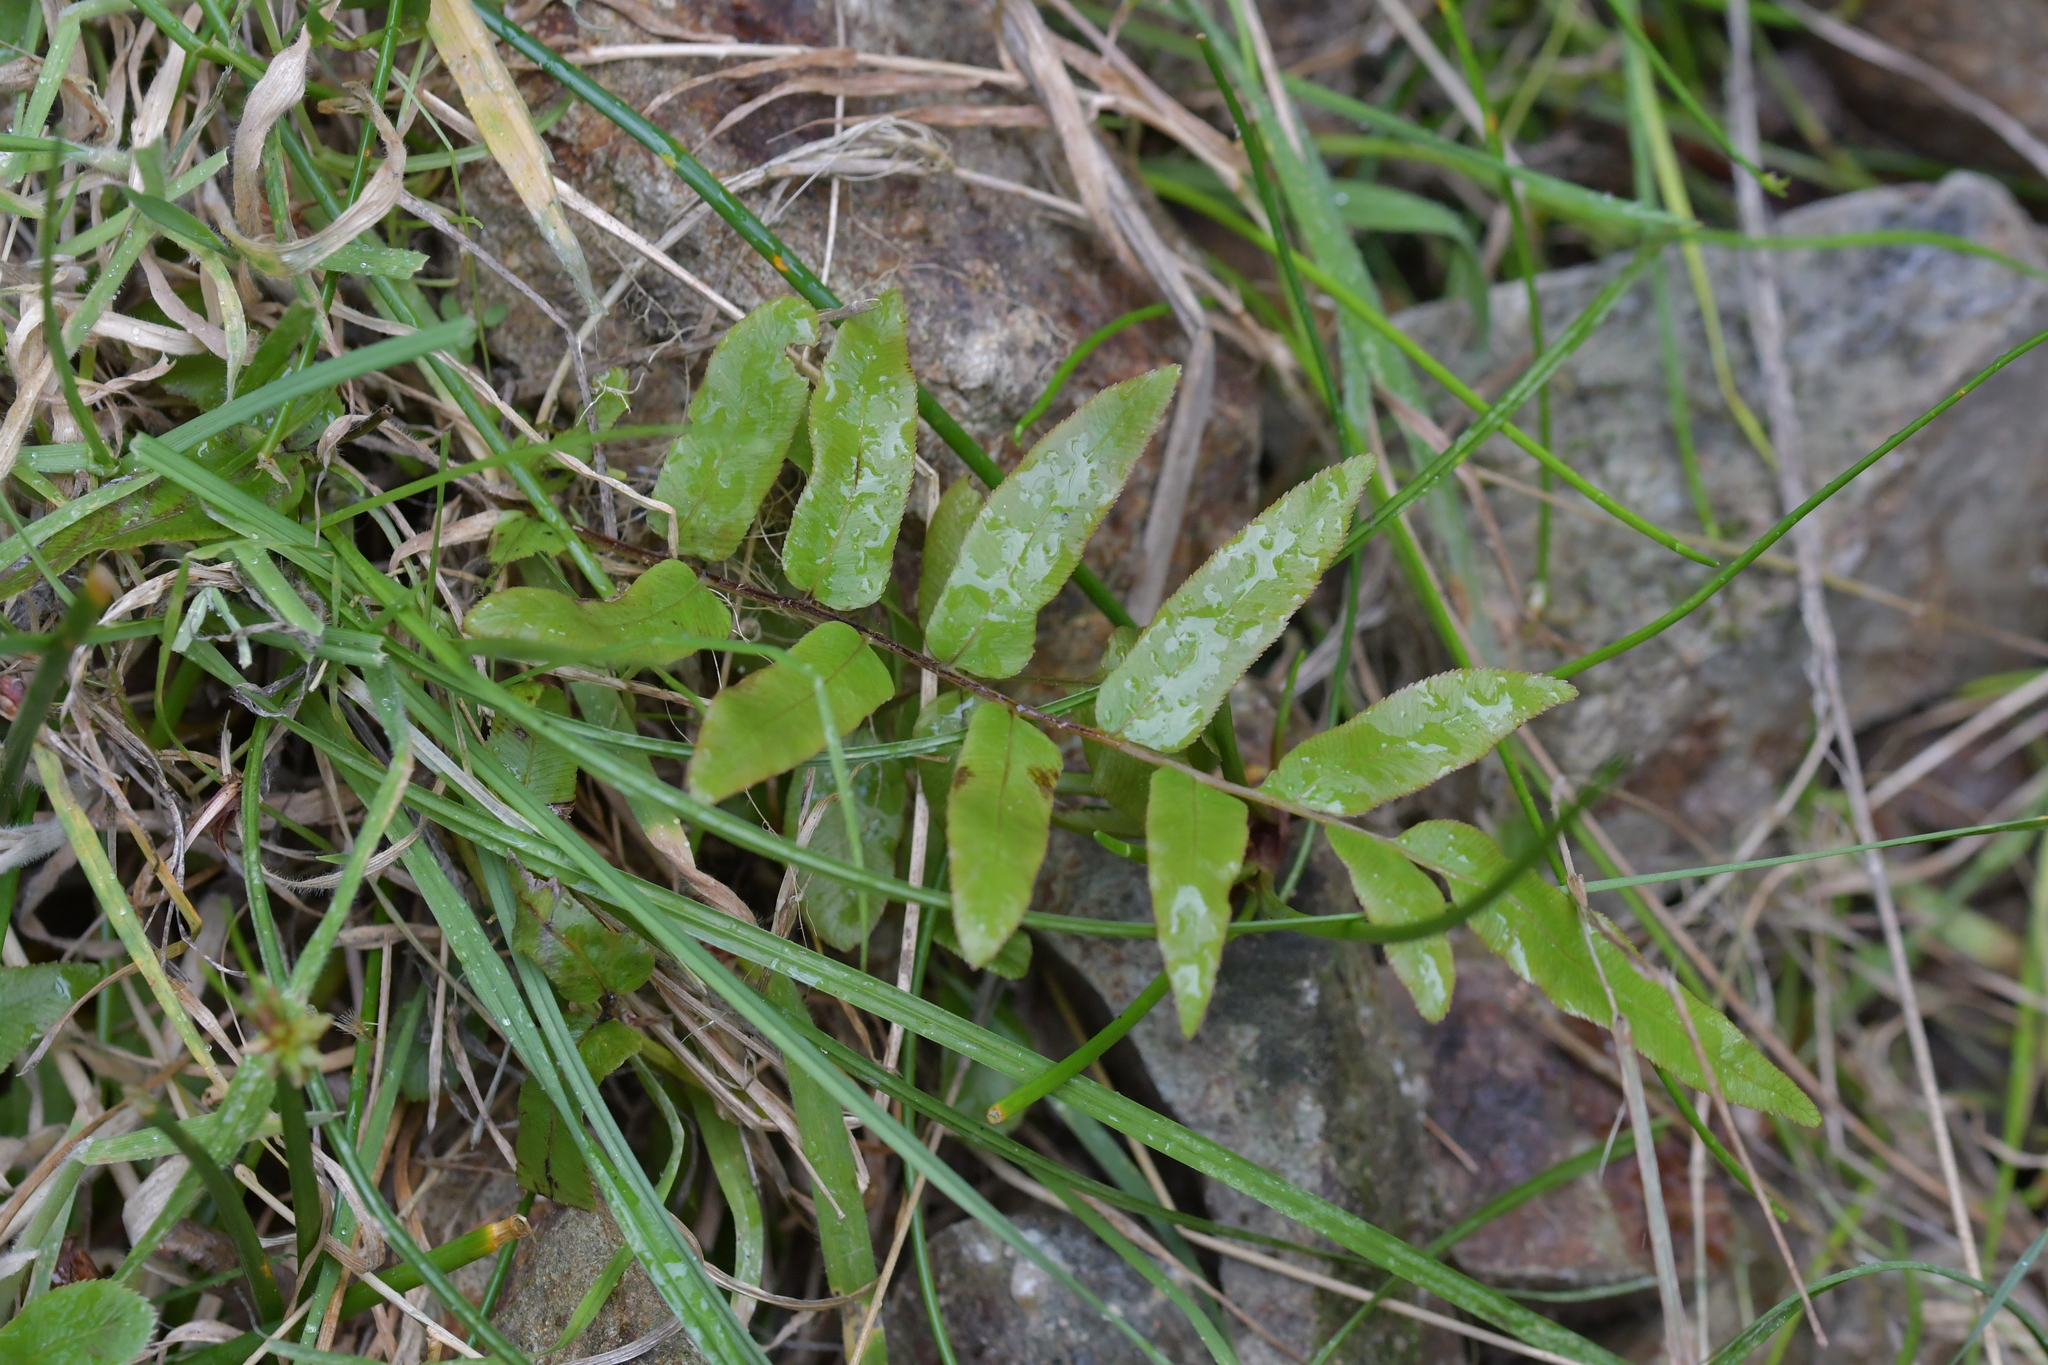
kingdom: Plantae
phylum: Tracheophyta
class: Polypodiopsida
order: Polypodiales
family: Blechnaceae
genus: Parablechnum
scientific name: Parablechnum minus
